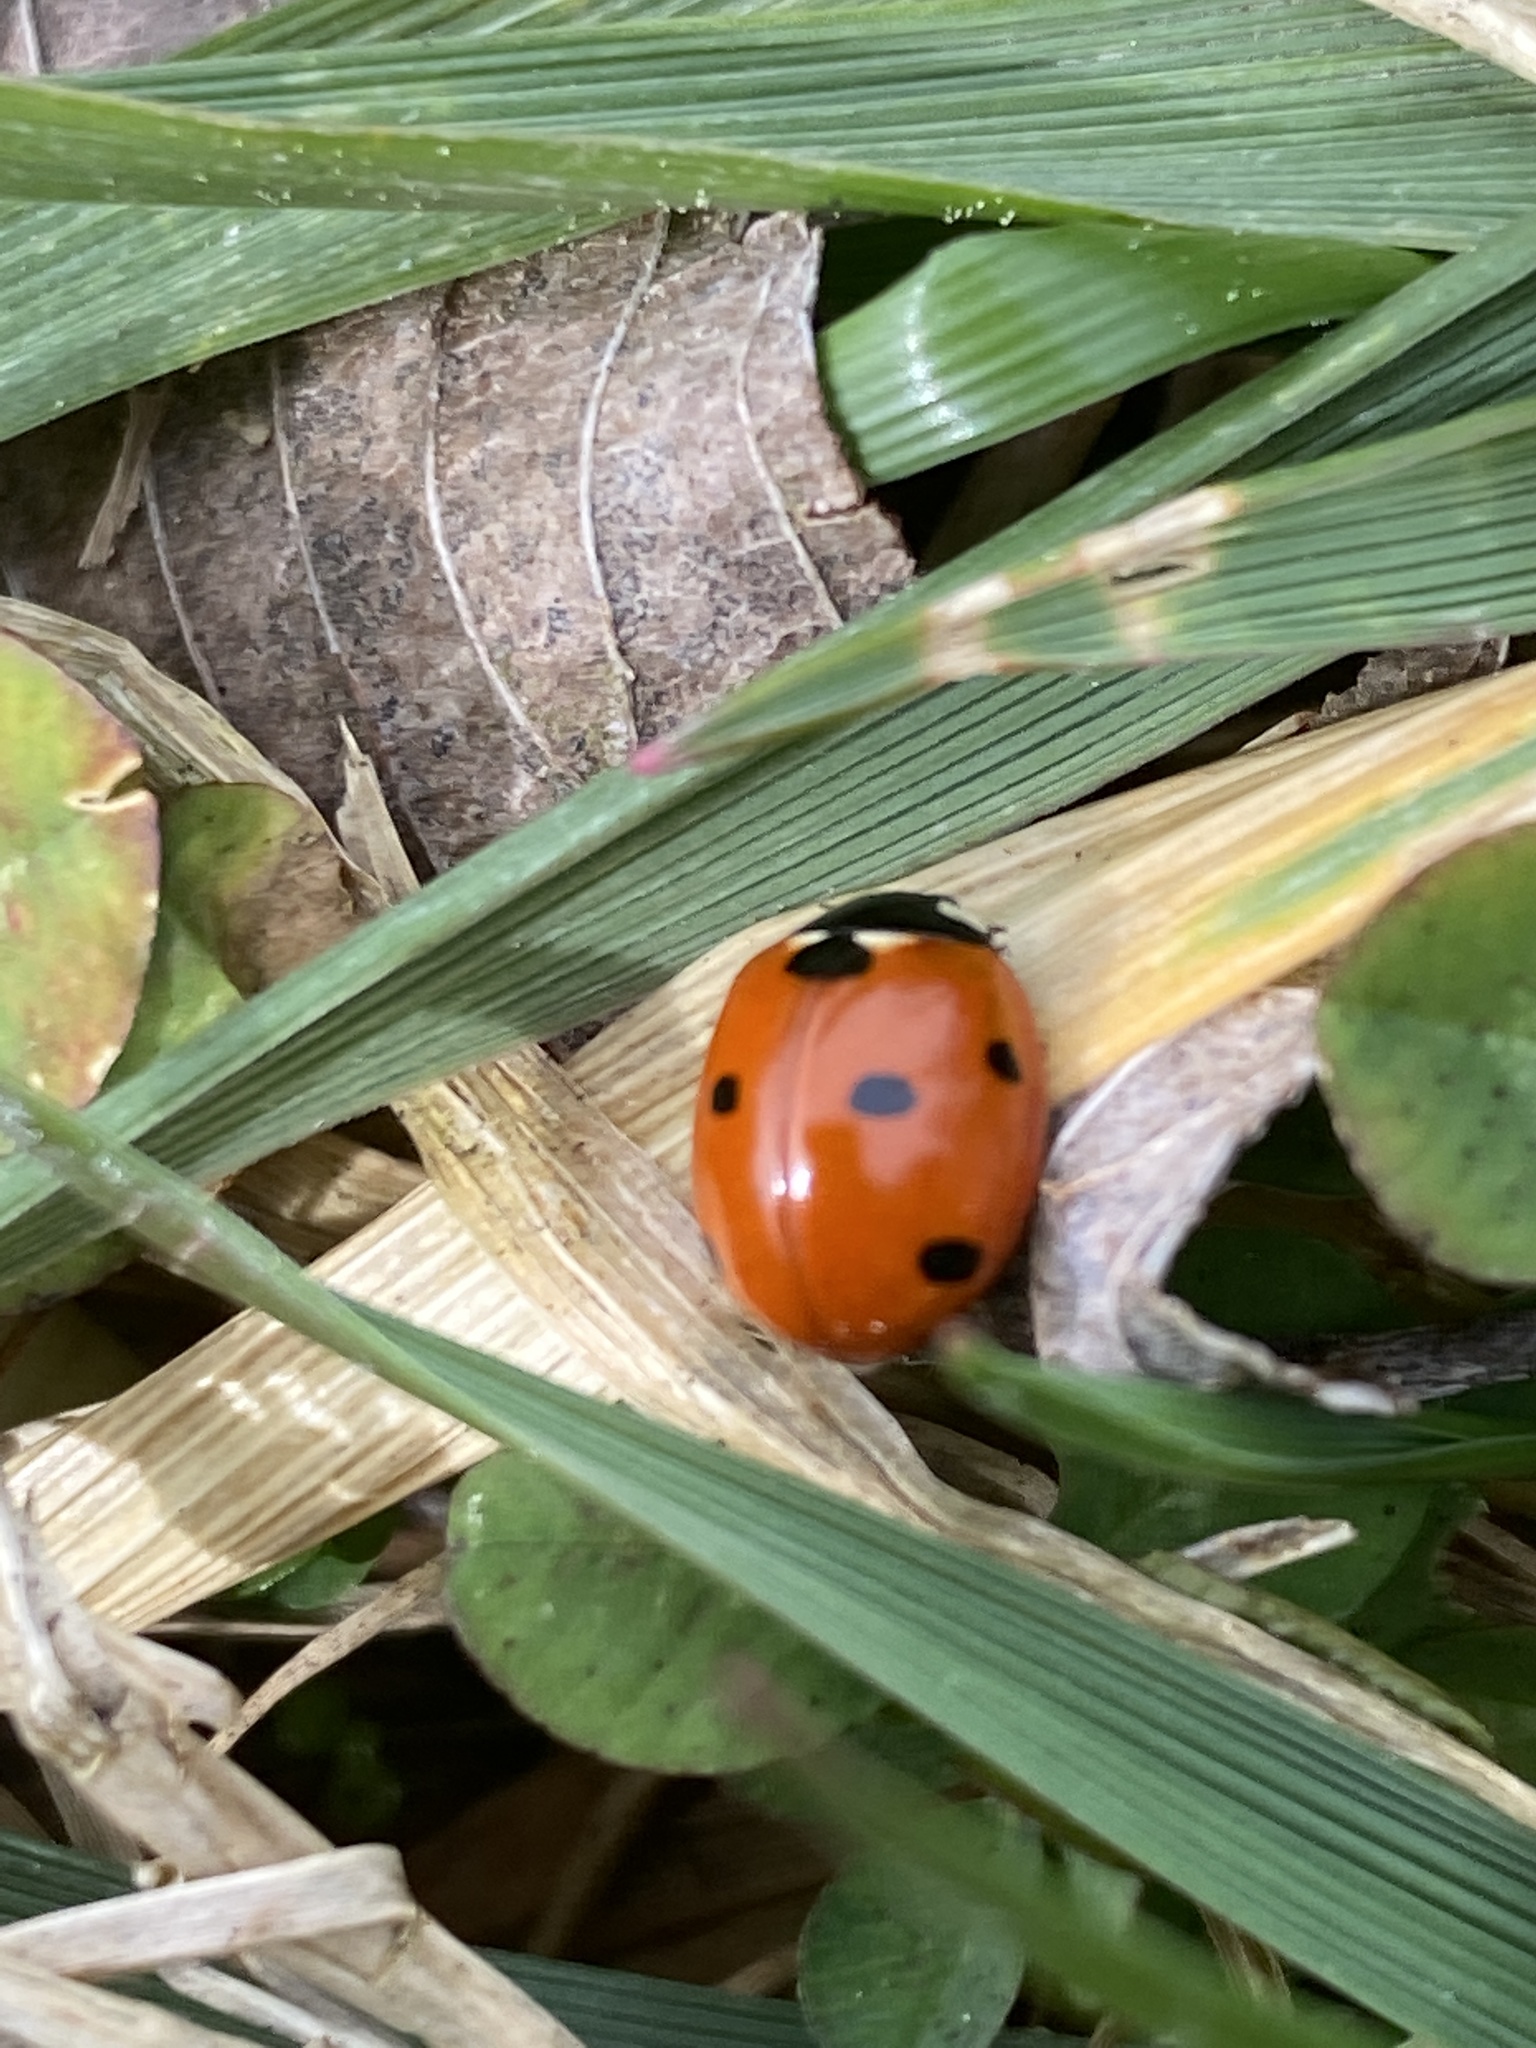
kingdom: Animalia
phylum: Arthropoda
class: Insecta
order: Coleoptera
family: Coccinellidae
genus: Coccinella
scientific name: Coccinella septempunctata
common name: Sevenspotted lady beetle
